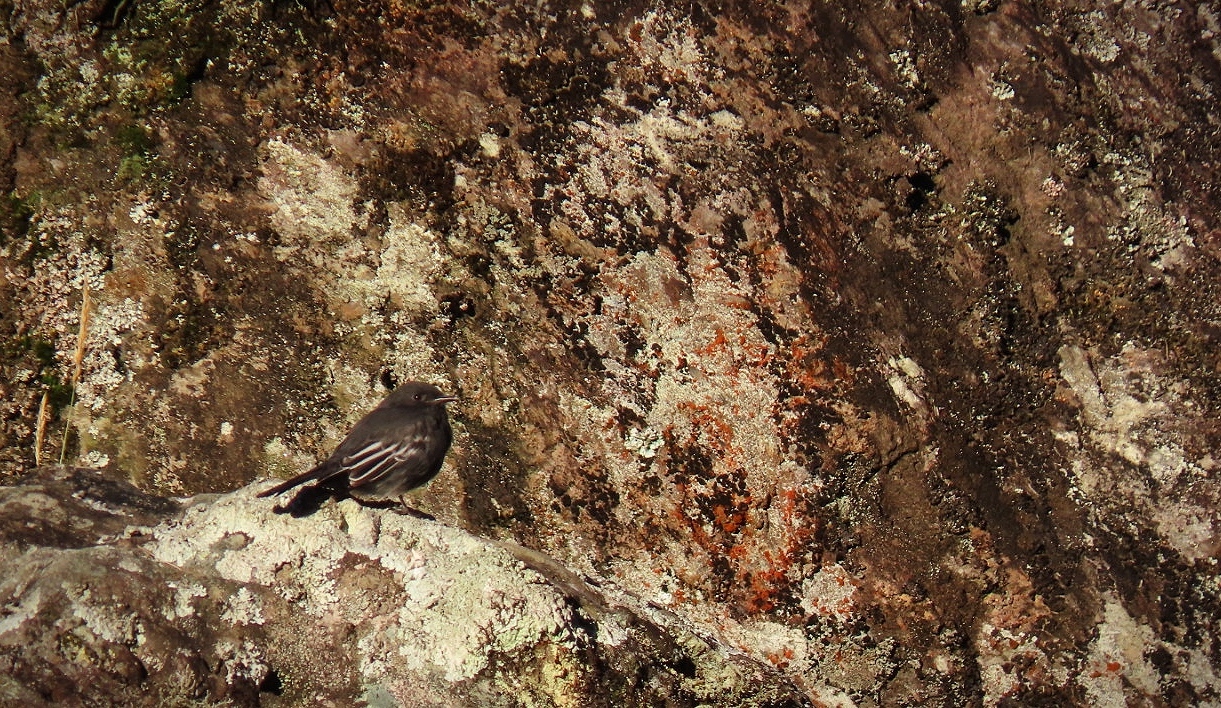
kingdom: Animalia
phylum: Chordata
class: Aves
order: Passeriformes
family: Tyrannidae
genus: Sayornis
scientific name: Sayornis nigricans
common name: Black phoebe
